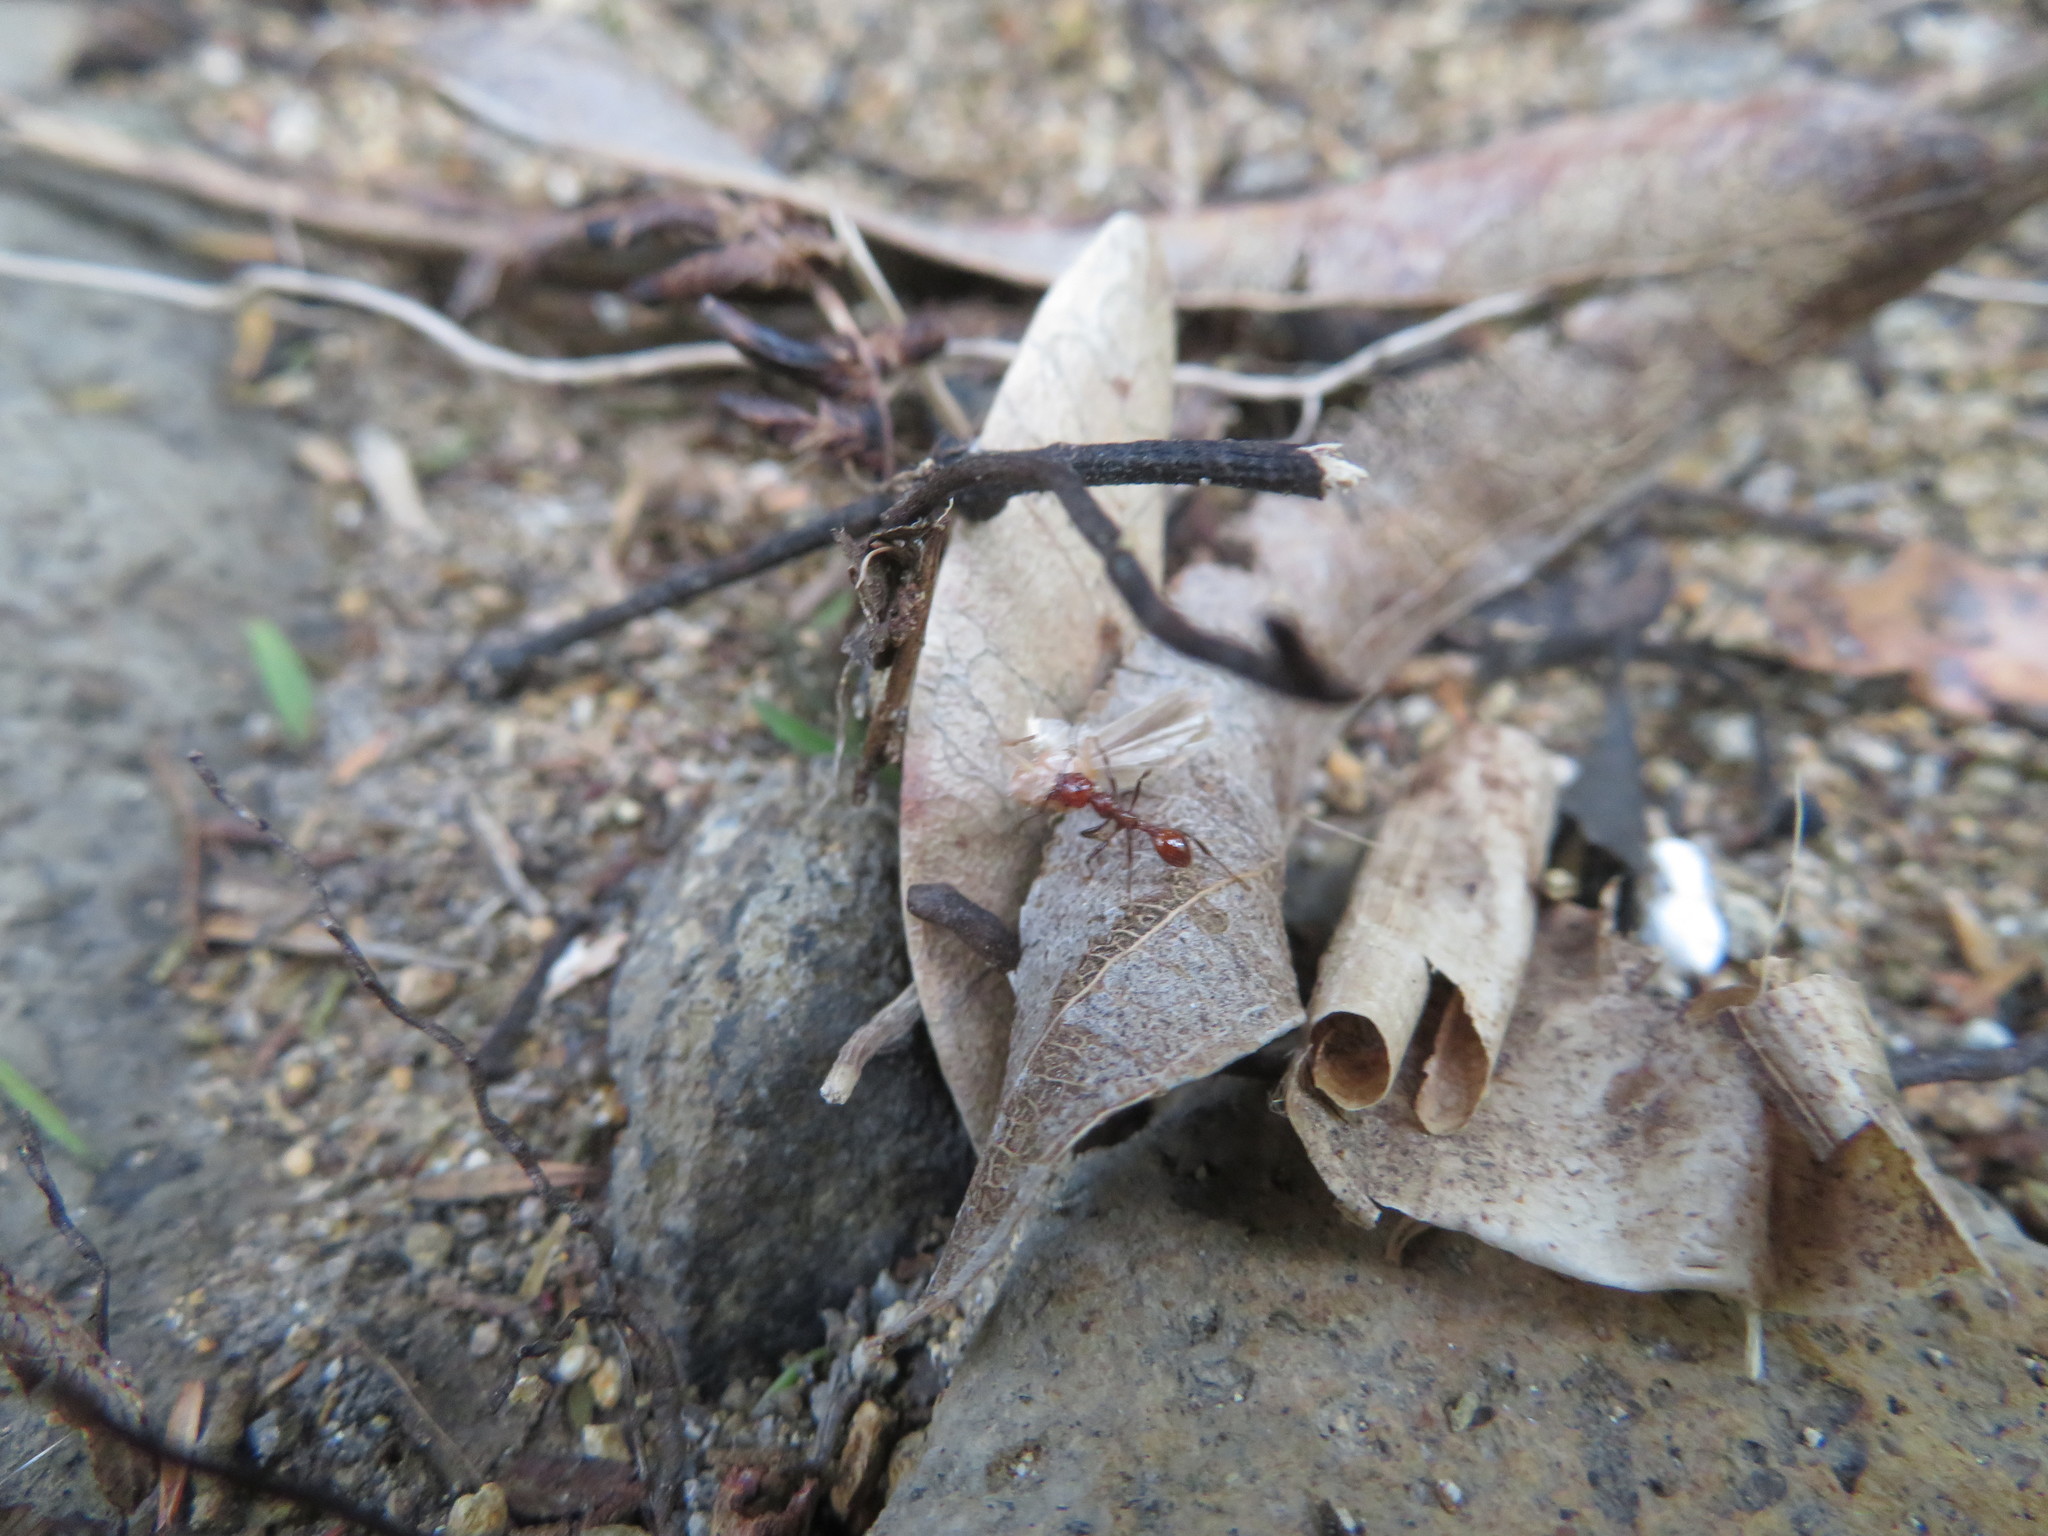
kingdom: Animalia
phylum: Arthropoda
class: Insecta
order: Hymenoptera
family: Formicidae
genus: Huberia
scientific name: Huberia striata
